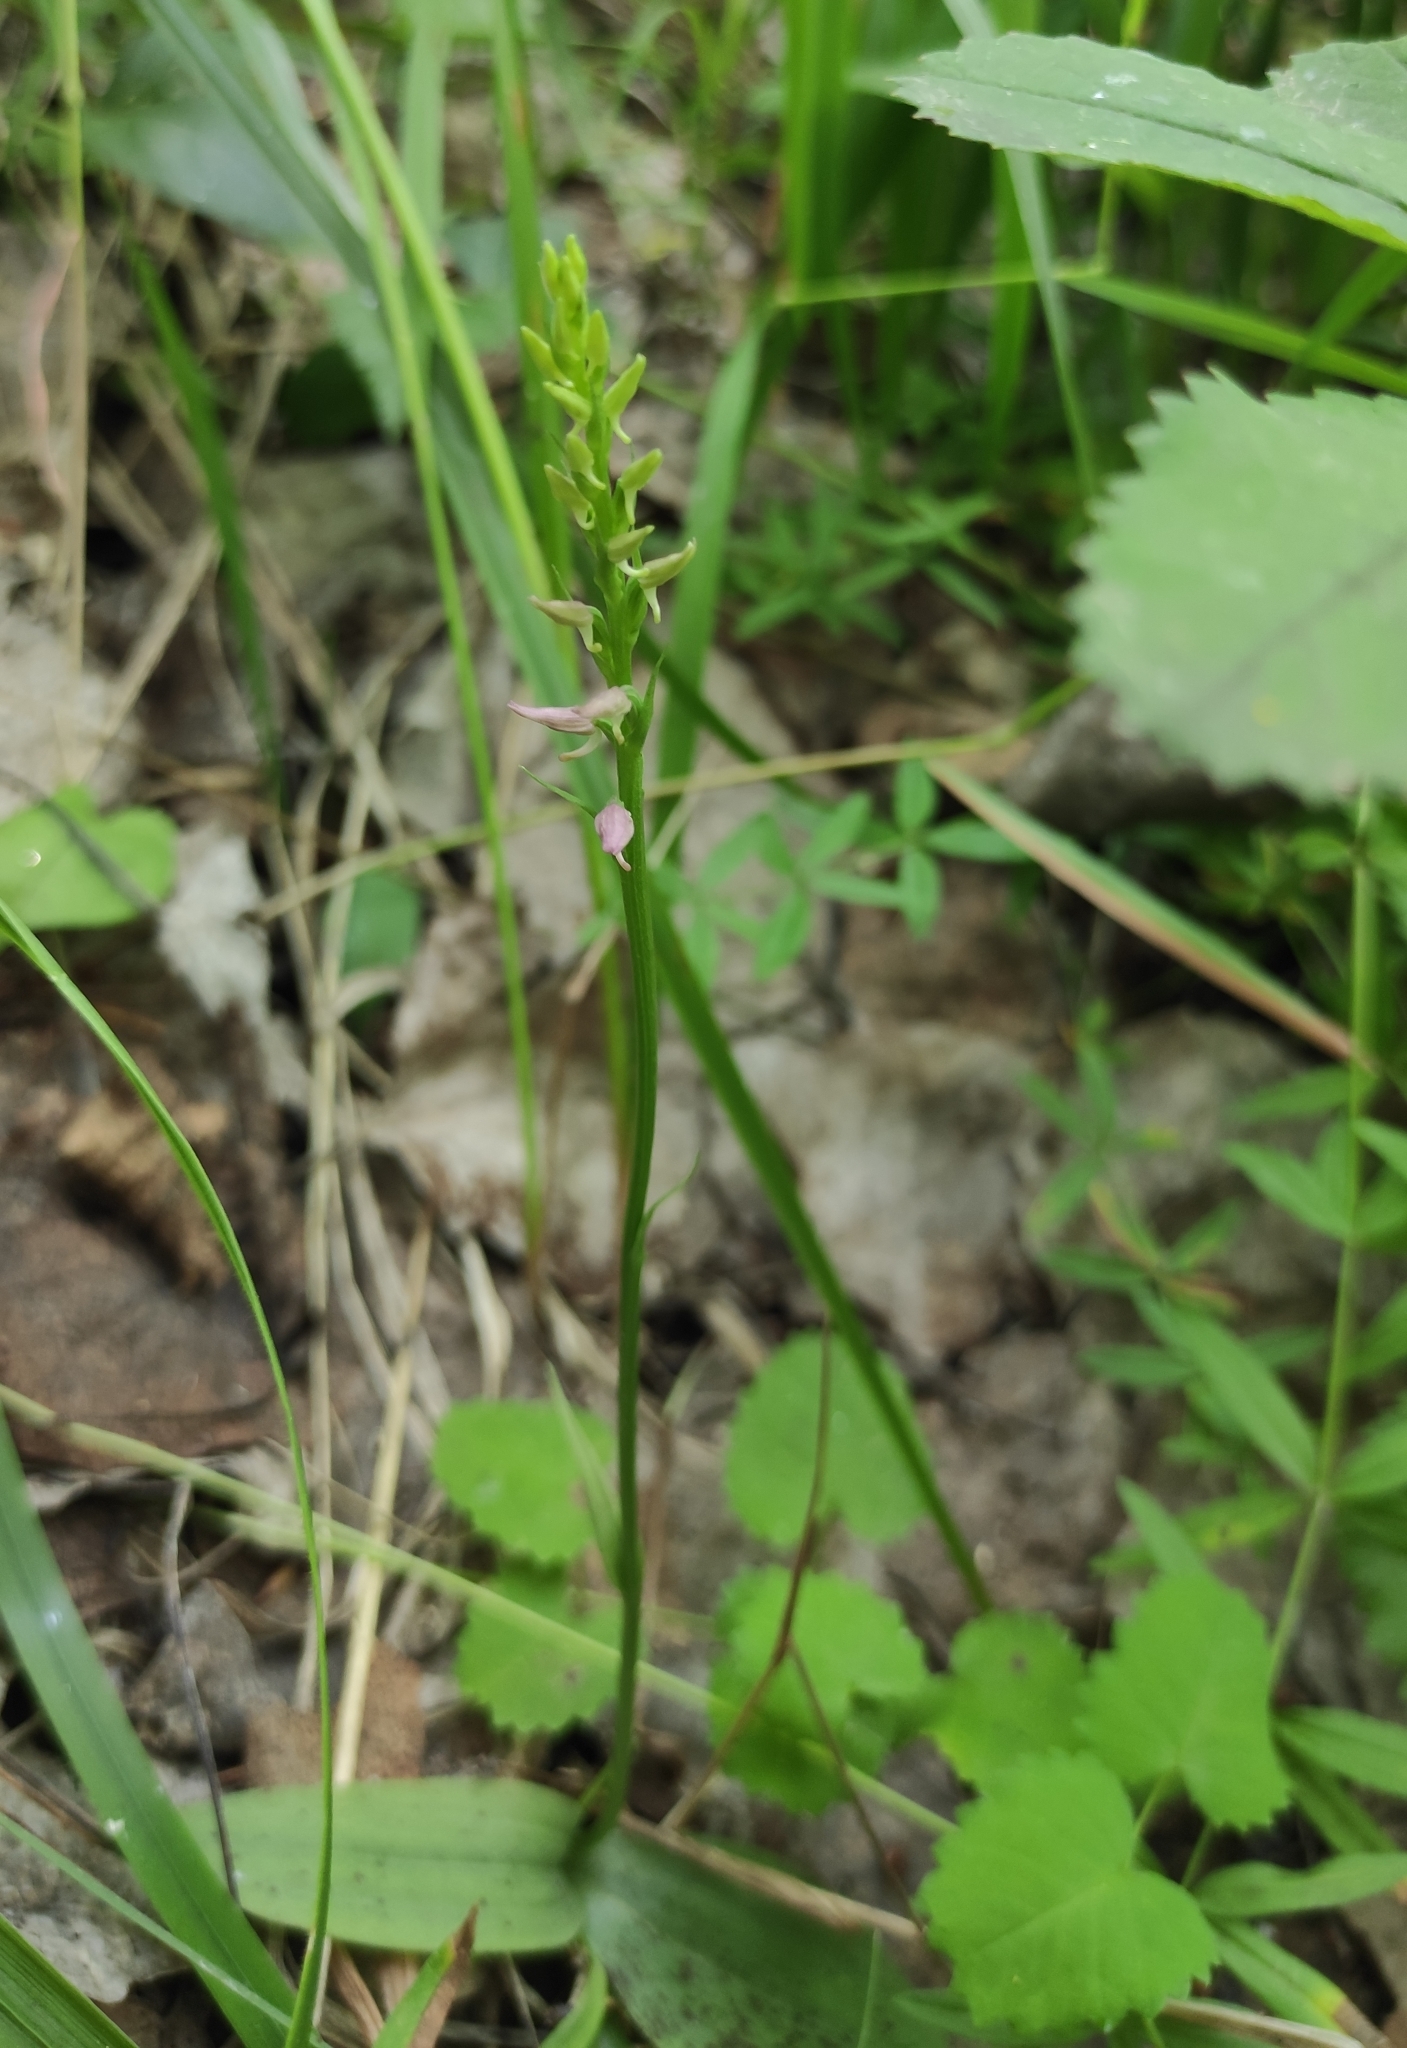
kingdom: Plantae
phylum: Tracheophyta
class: Liliopsida
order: Asparagales
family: Orchidaceae
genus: Hemipilia
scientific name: Hemipilia cucullata
